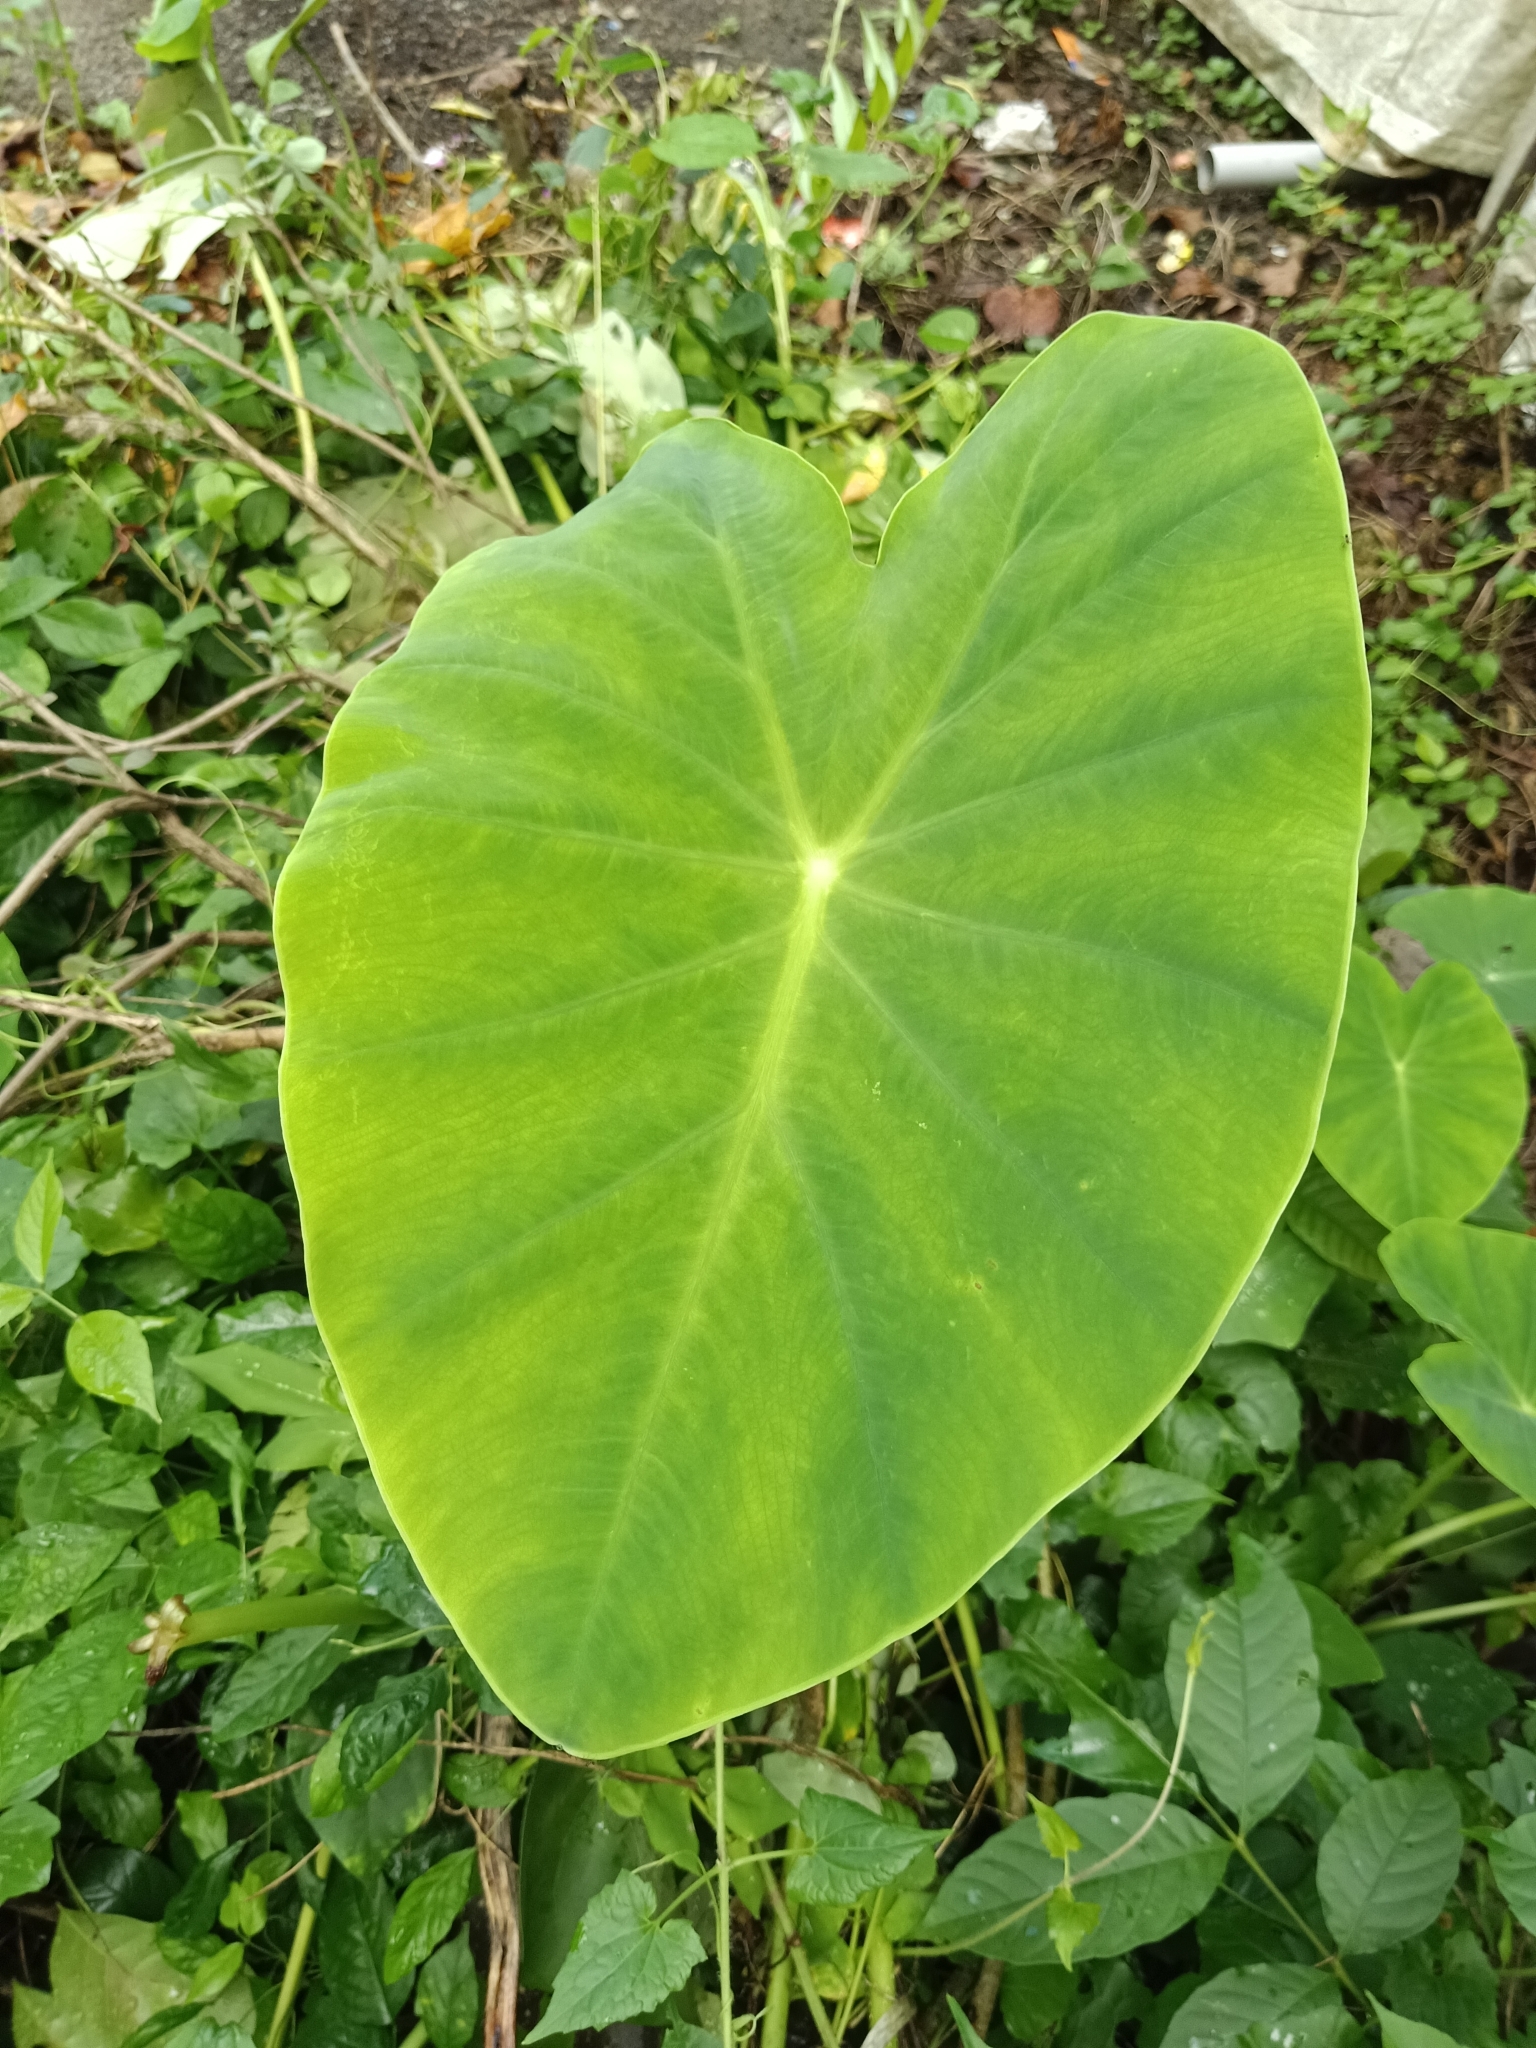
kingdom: Plantae
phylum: Tracheophyta
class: Liliopsida
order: Alismatales
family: Araceae
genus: Colocasia
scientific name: Colocasia esculenta
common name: Taro
